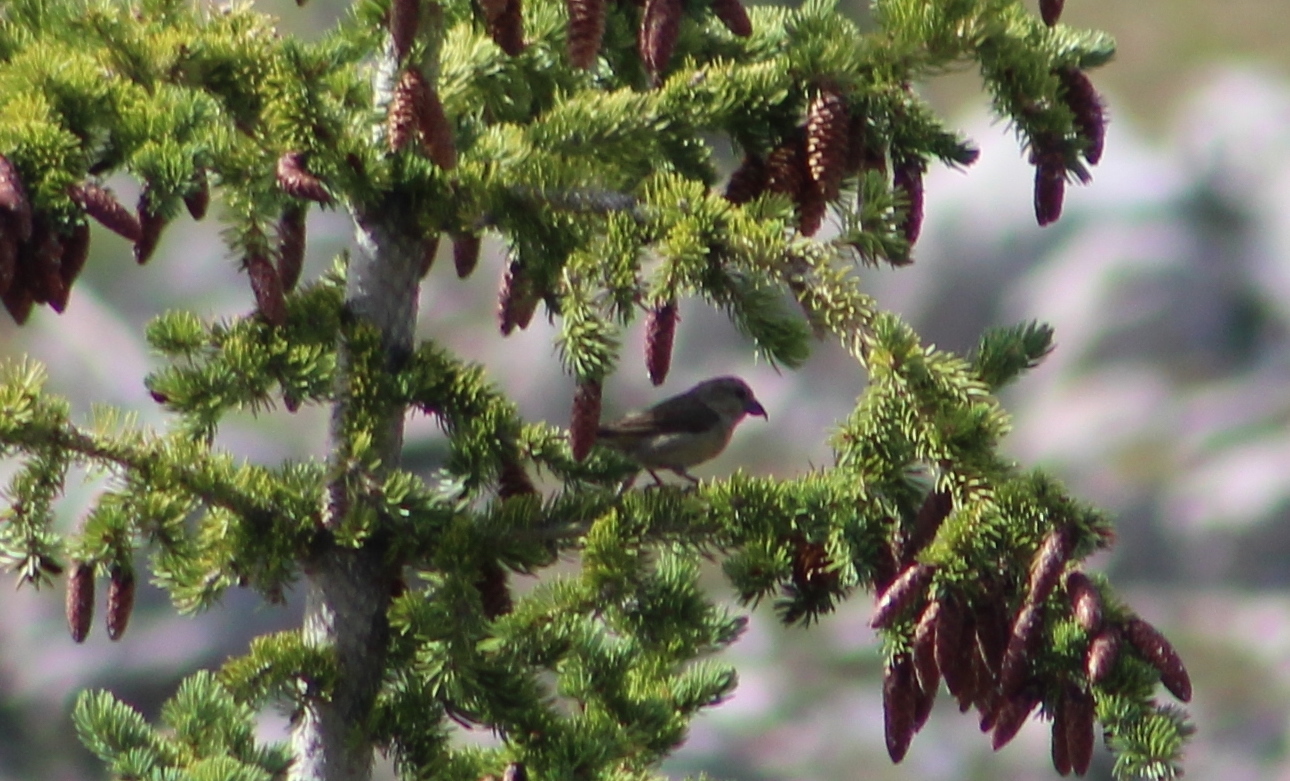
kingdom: Animalia
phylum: Chordata
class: Aves
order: Passeriformes
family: Fringillidae
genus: Loxia
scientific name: Loxia curvirostra
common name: Red crossbill
